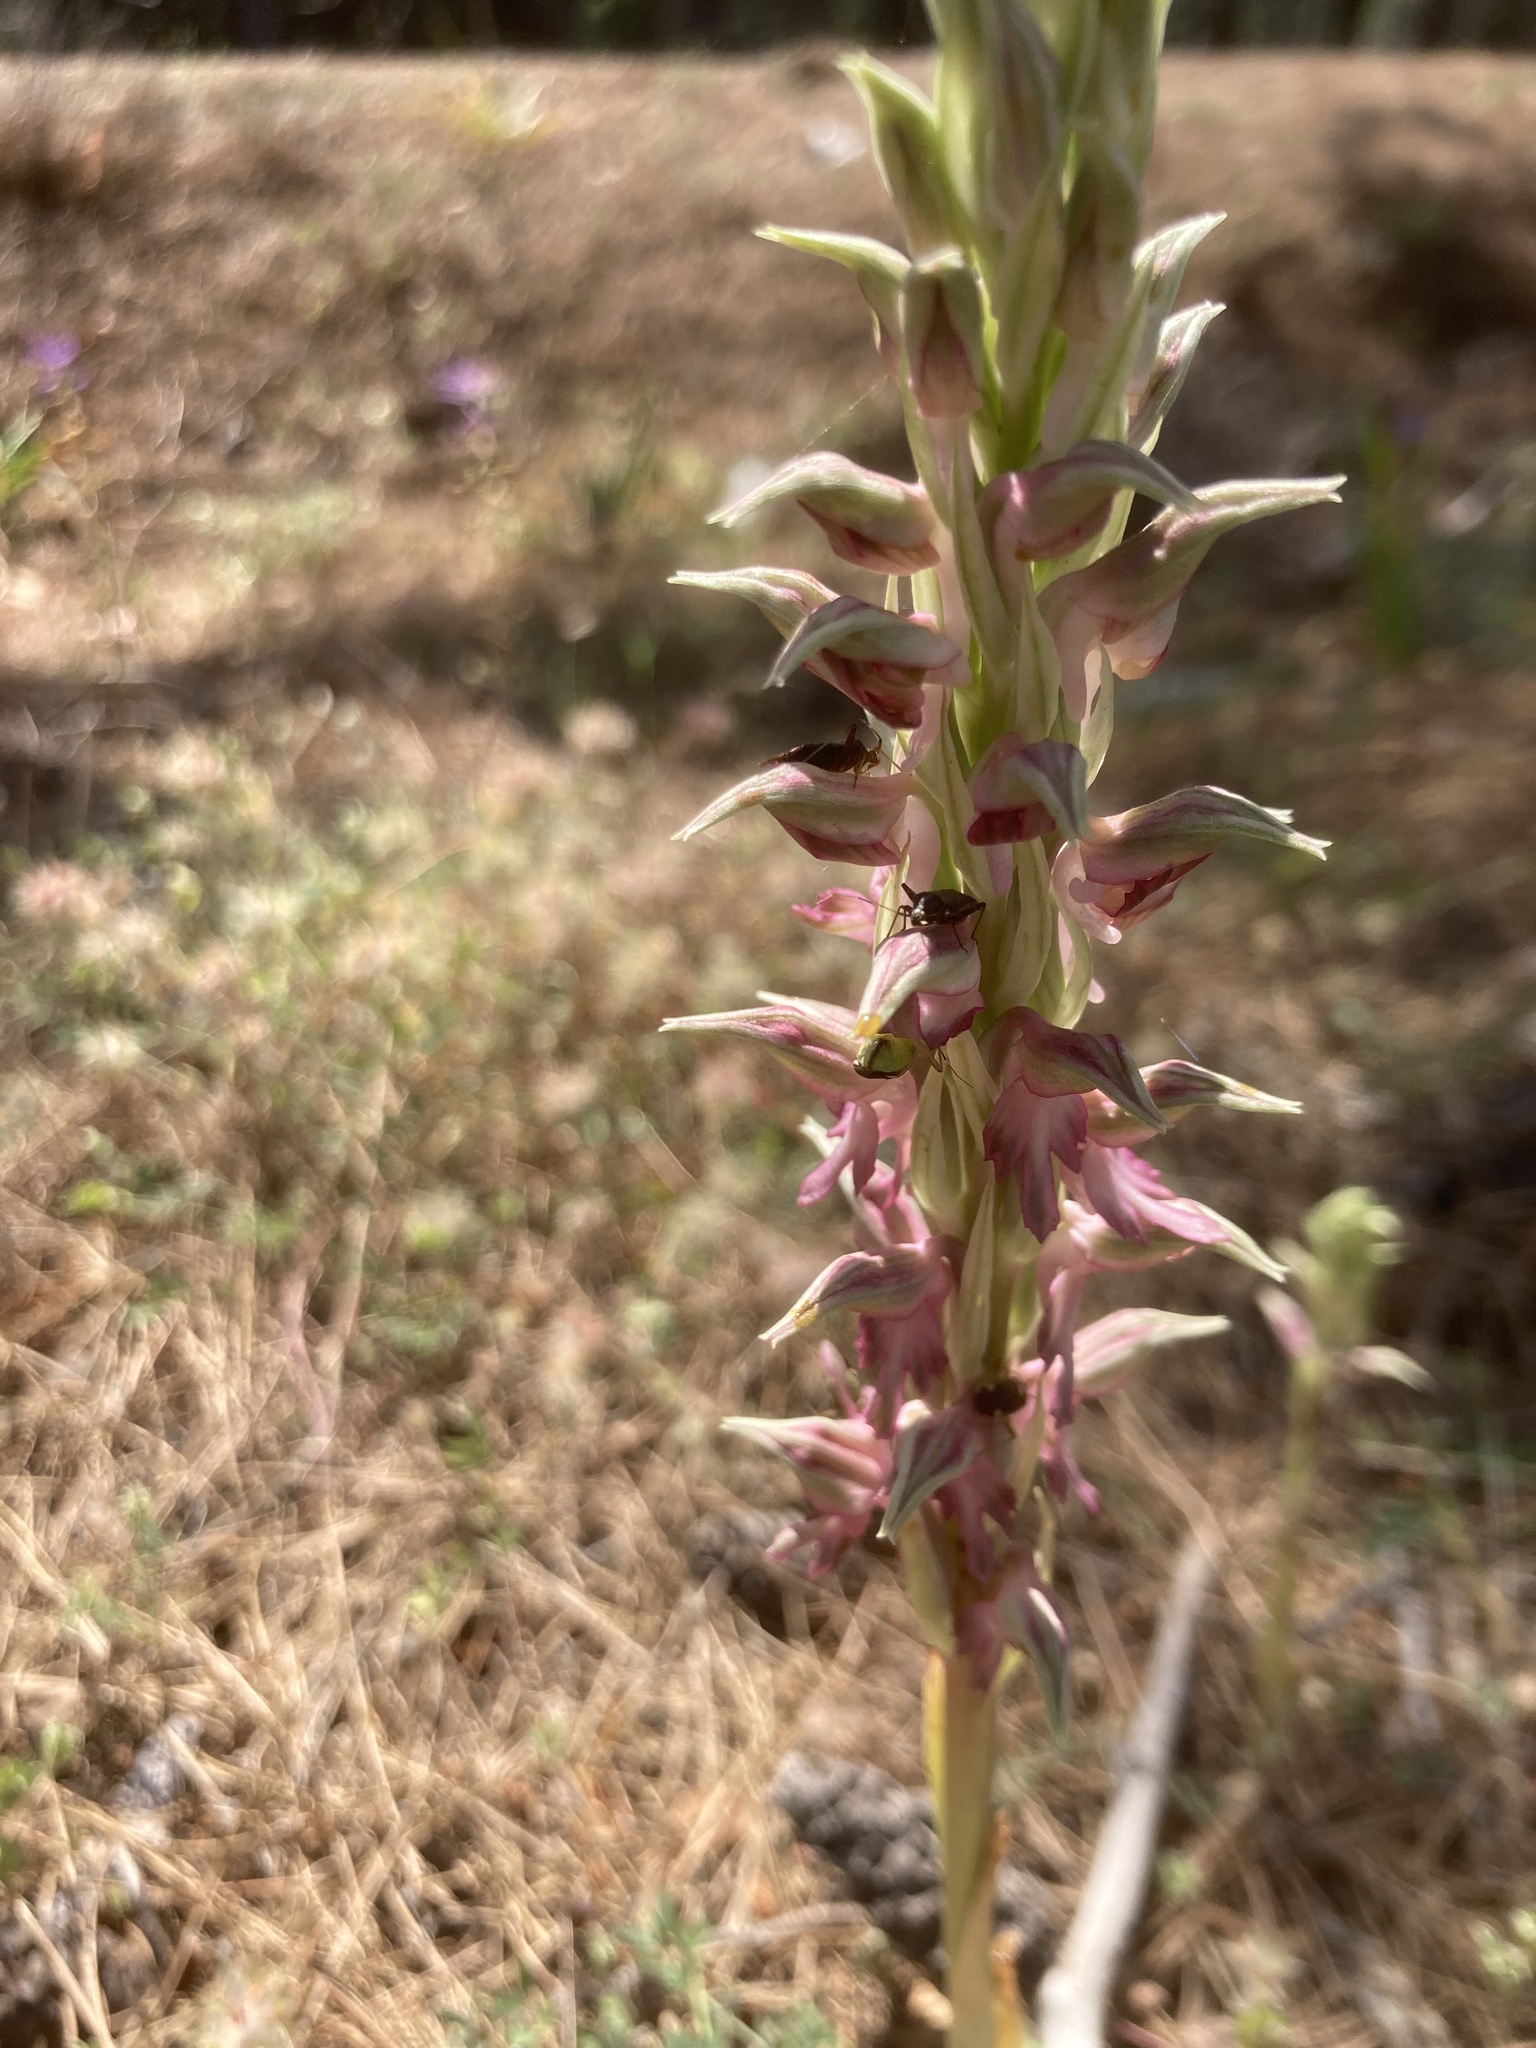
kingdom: Plantae
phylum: Tracheophyta
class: Liliopsida
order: Asparagales
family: Orchidaceae
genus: Anacamptis
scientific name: Anacamptis sancta
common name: Holy orchid
